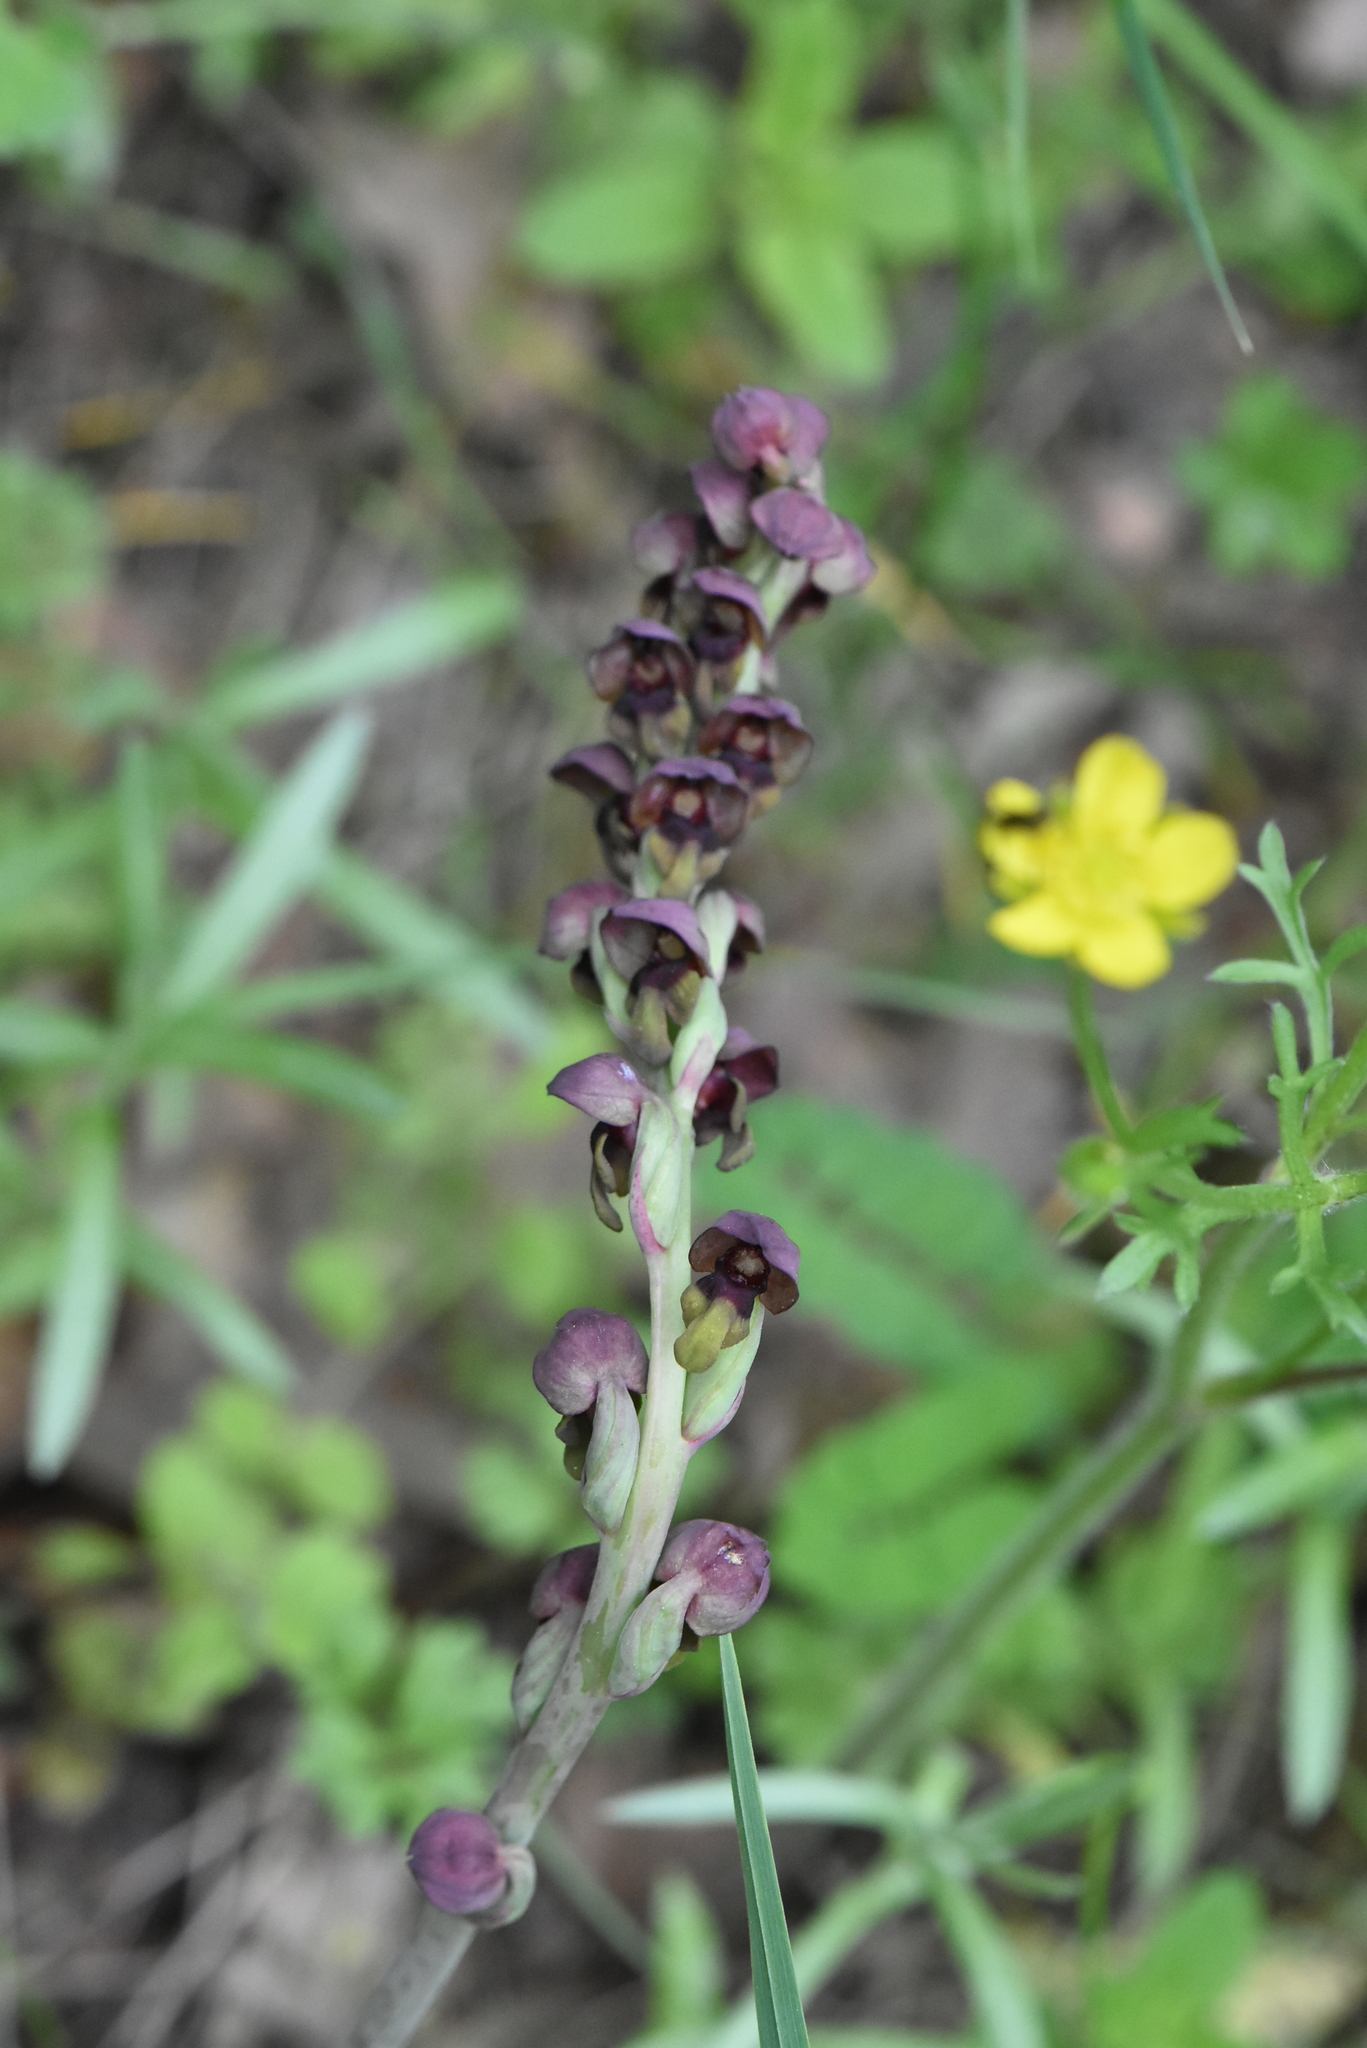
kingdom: Plantae
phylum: Tracheophyta
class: Liliopsida
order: Asparagales
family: Orchidaceae
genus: Steveniella
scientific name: Steveniella satyrioides
